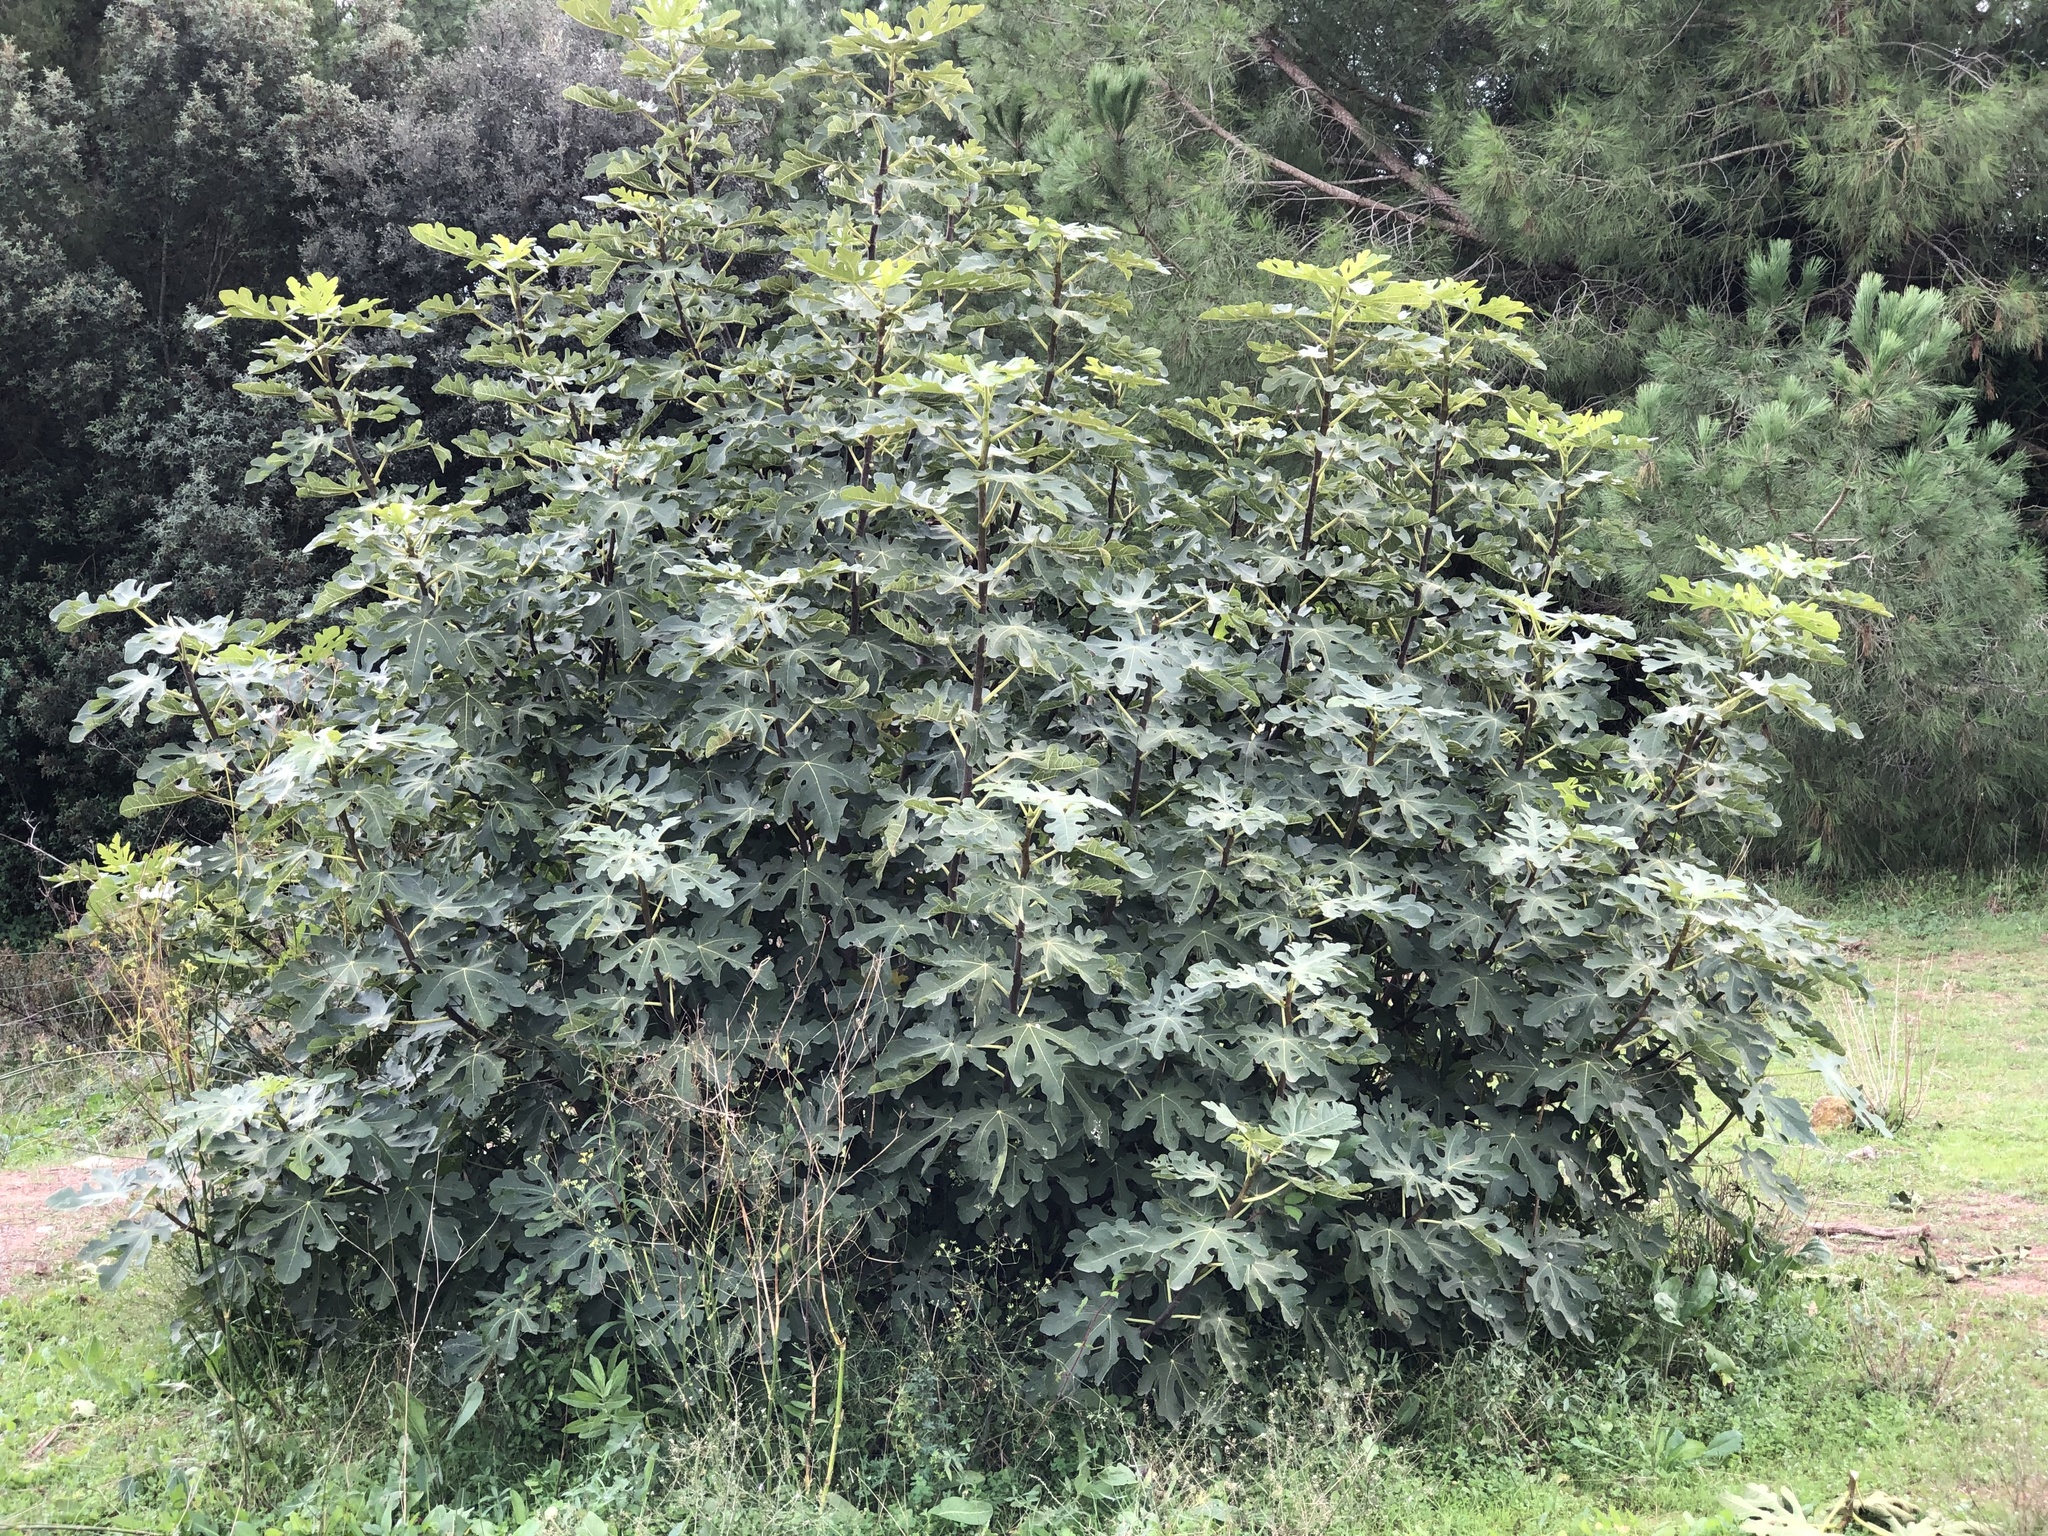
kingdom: Plantae
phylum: Tracheophyta
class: Magnoliopsida
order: Rosales
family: Moraceae
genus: Ficus
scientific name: Ficus carica
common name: Fig
